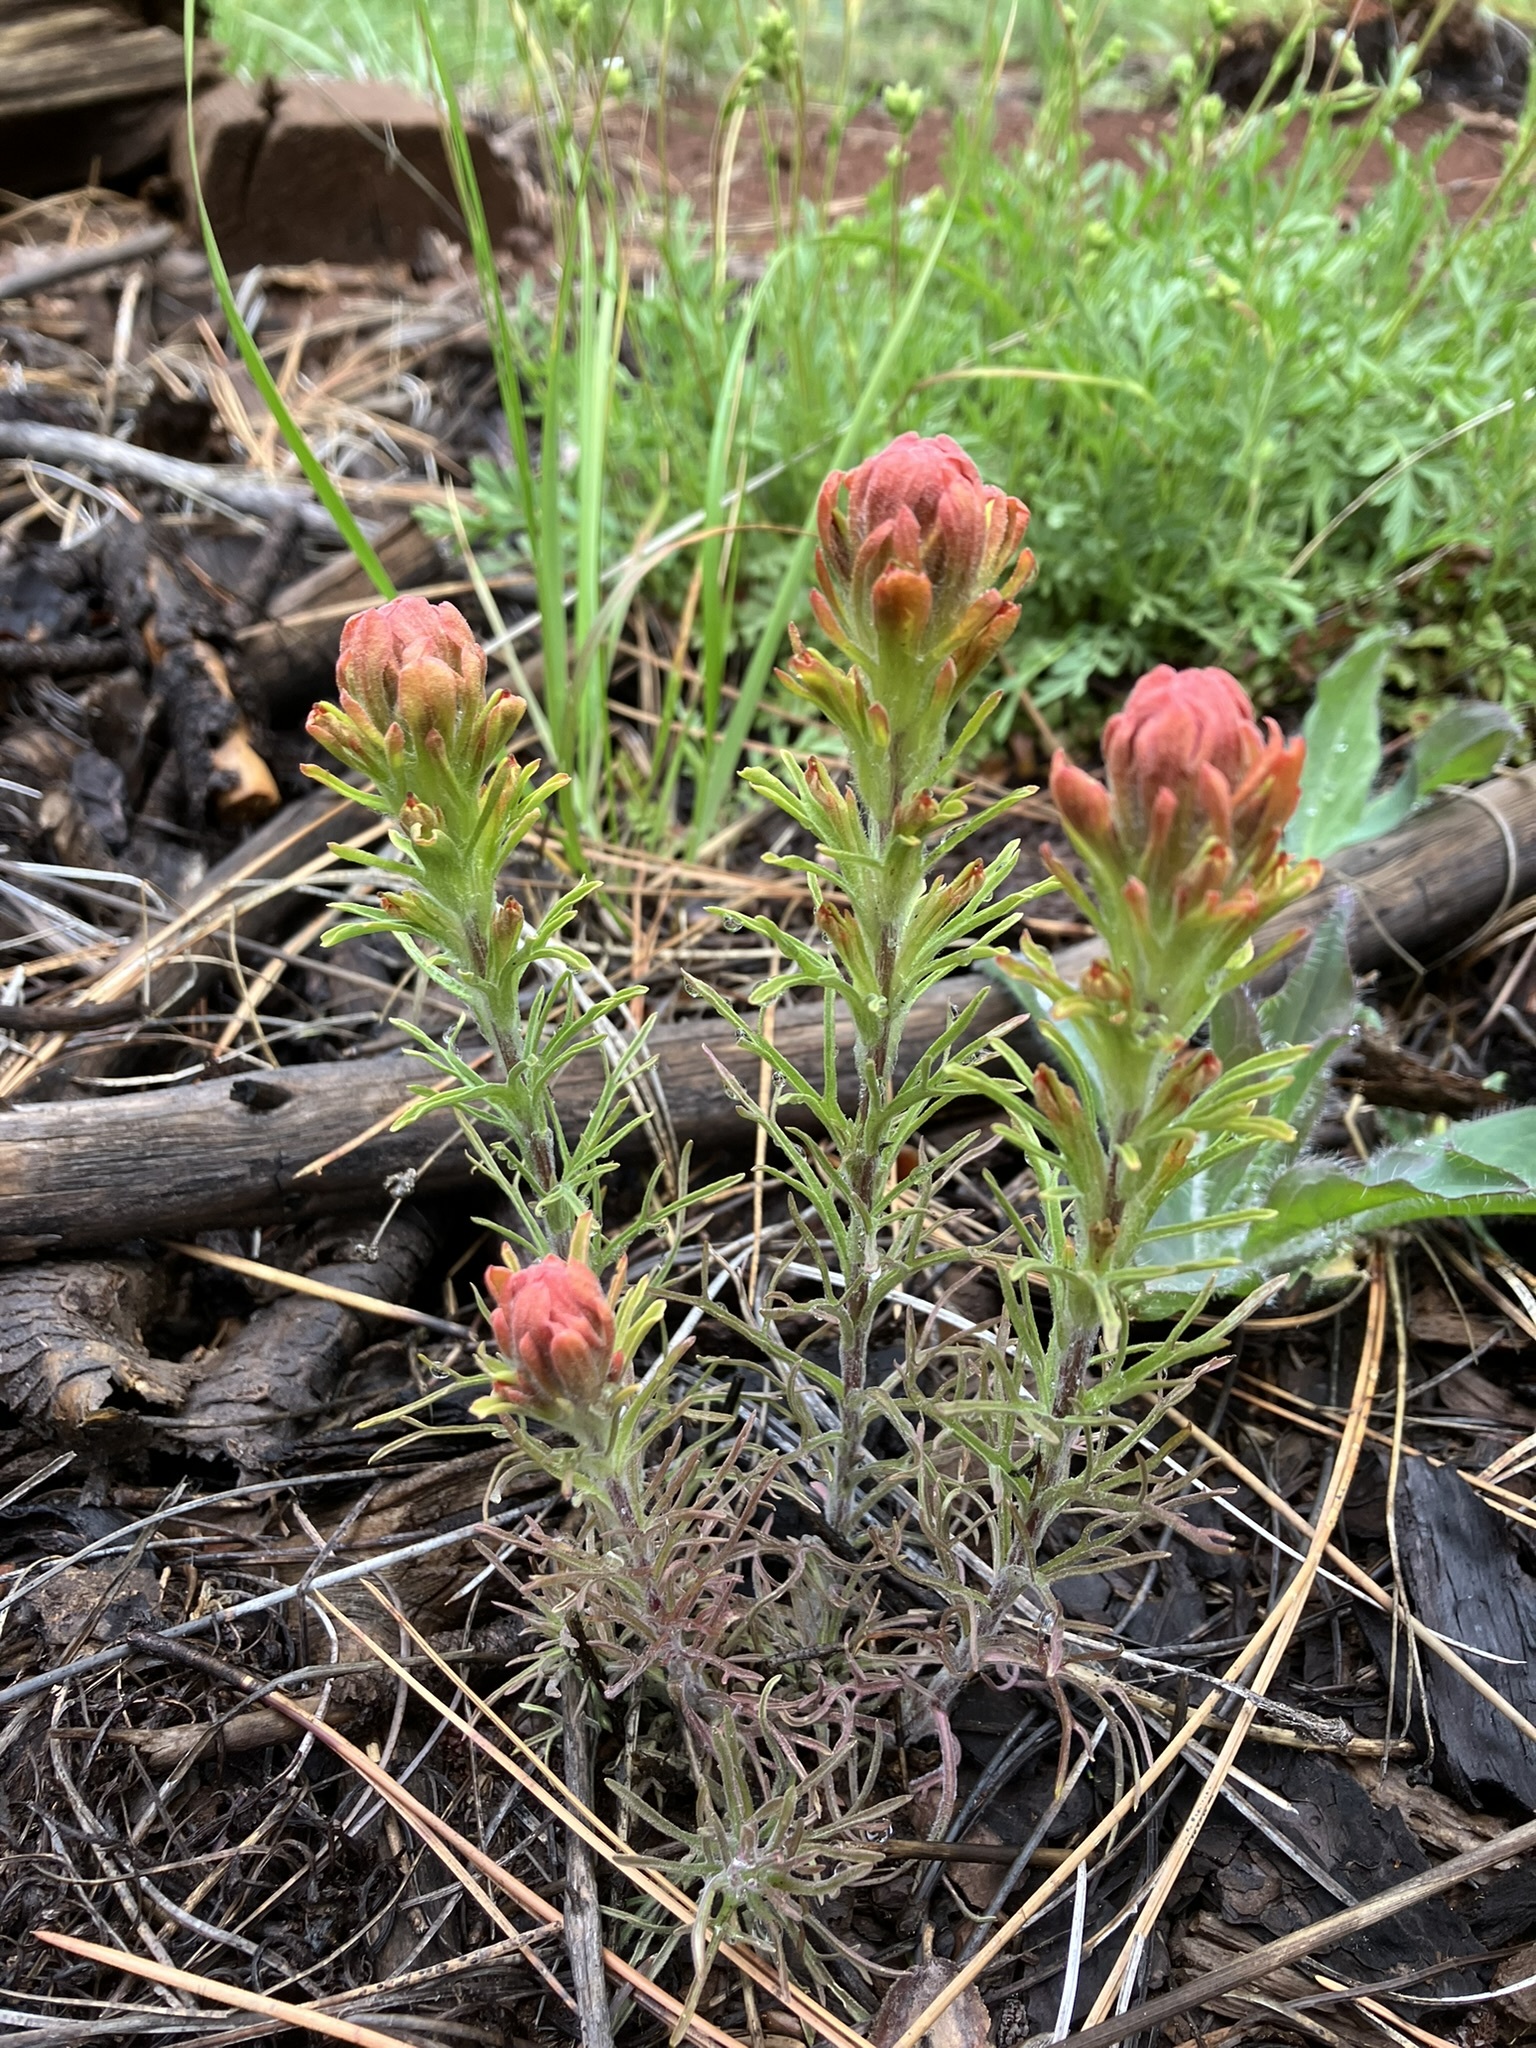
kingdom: Plantae
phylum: Tracheophyta
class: Magnoliopsida
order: Lamiales
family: Orobanchaceae
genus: Castilleja
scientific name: Castilleja arachnoidea
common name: Cobwebby indian paintbrush
